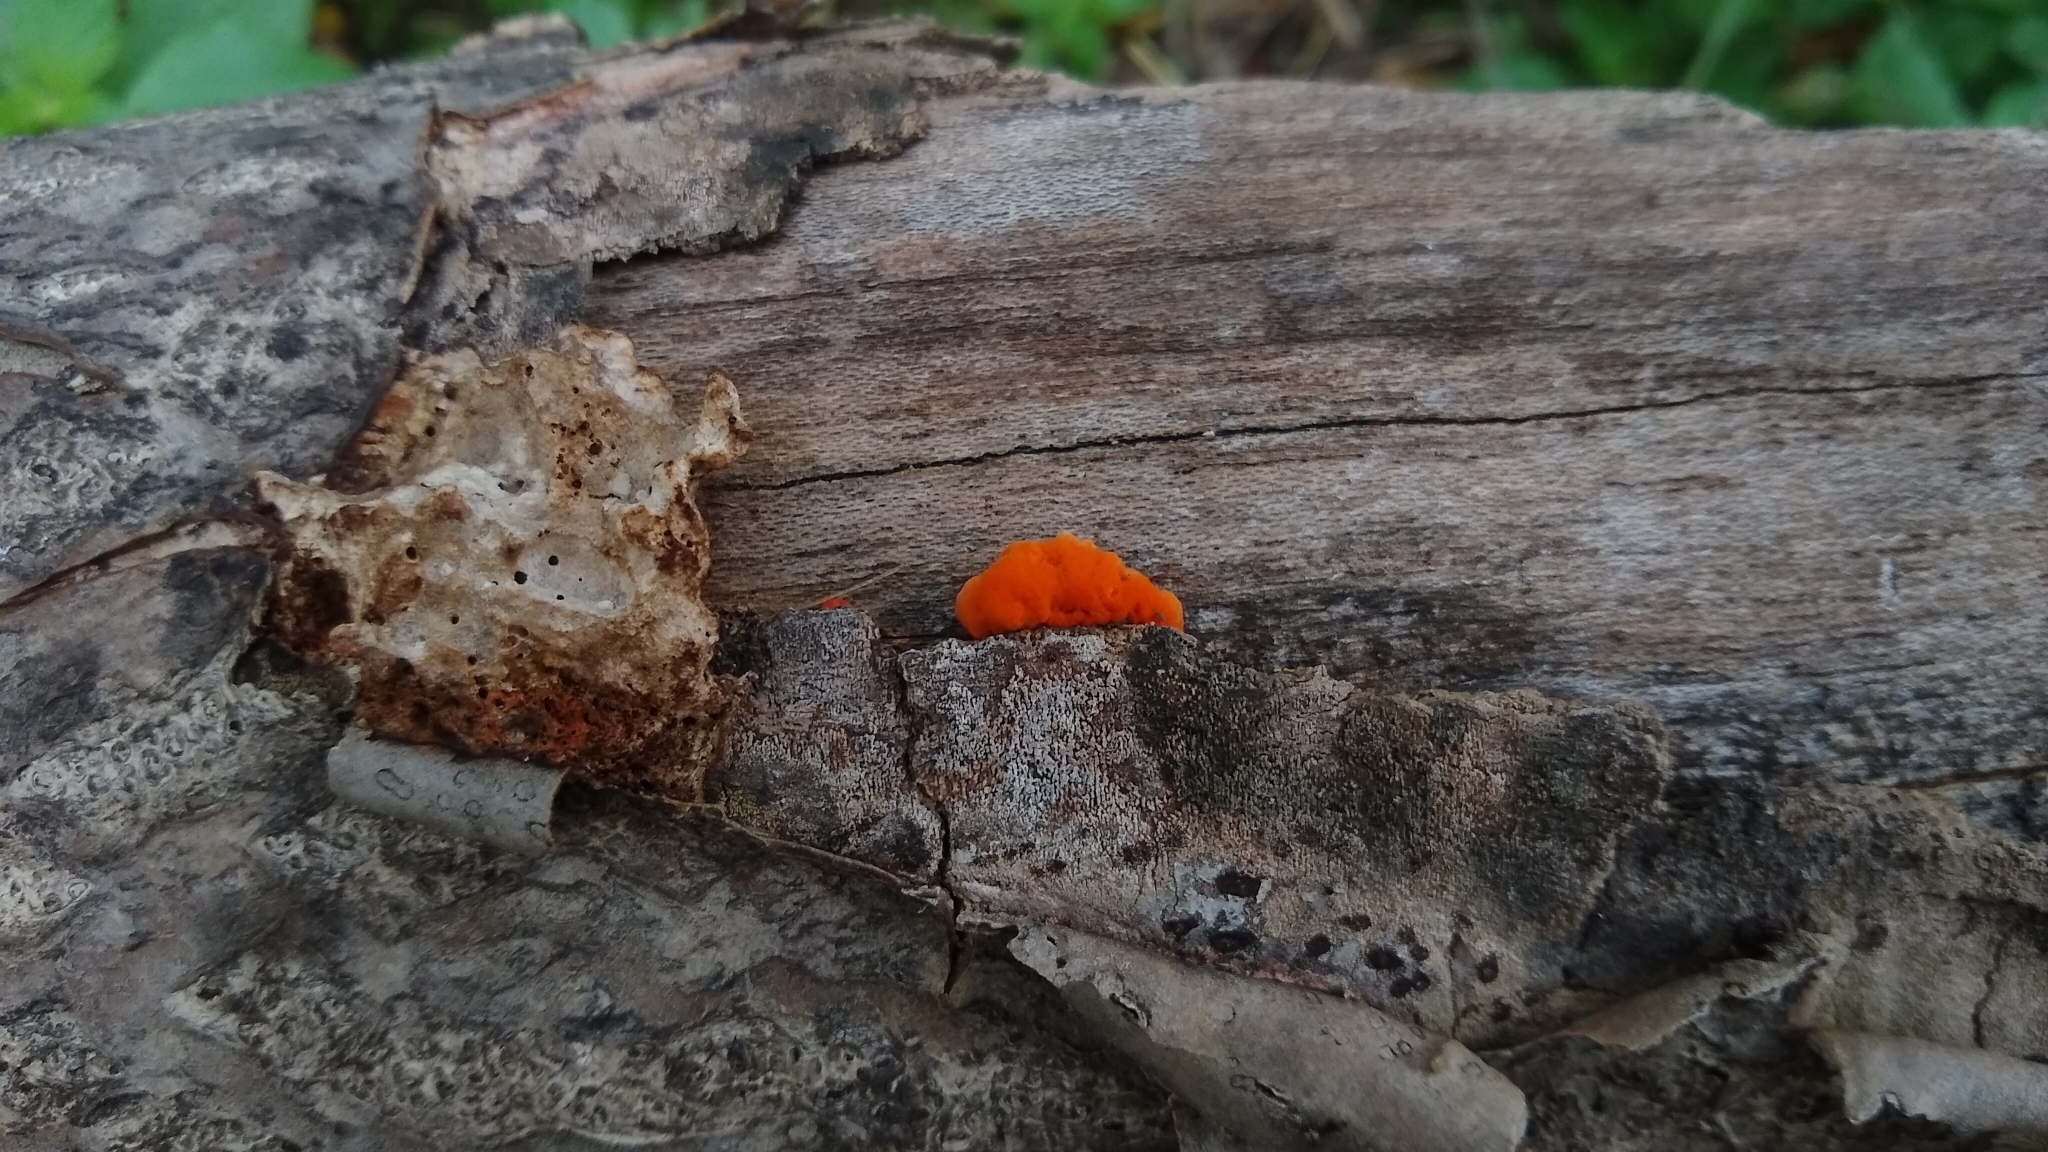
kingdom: Fungi
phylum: Basidiomycota
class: Agaricomycetes
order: Polyporales
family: Polyporaceae
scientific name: Polyporaceae
